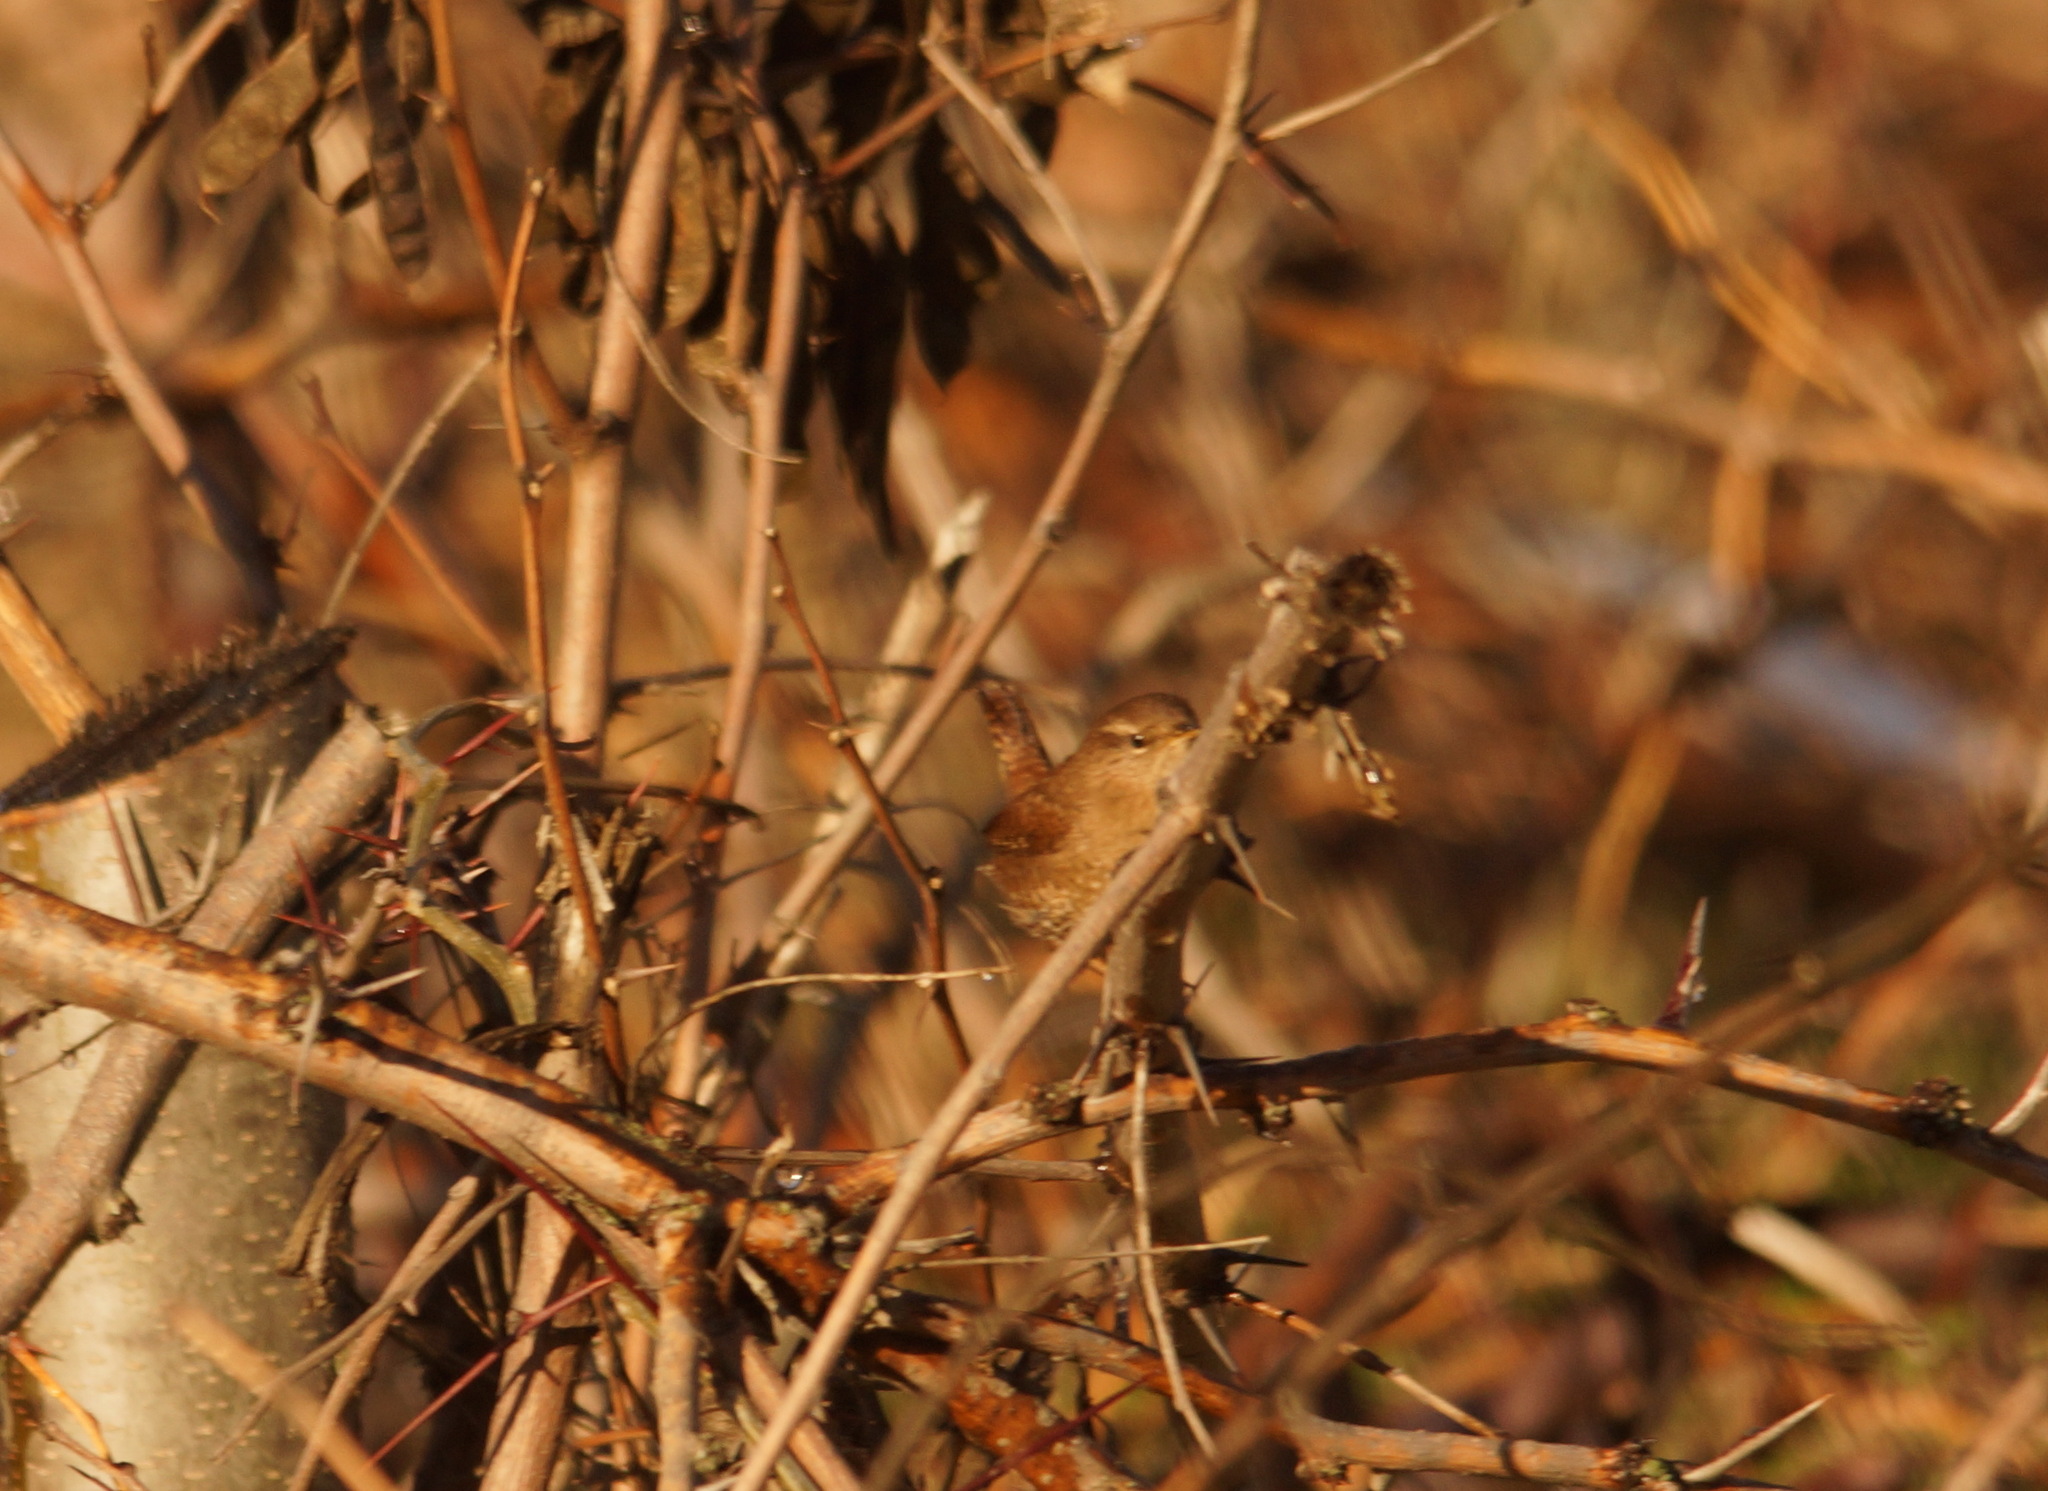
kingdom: Animalia
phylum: Chordata
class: Aves
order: Passeriformes
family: Troglodytidae
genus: Troglodytes
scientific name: Troglodytes troglodytes
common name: Eurasian wren
